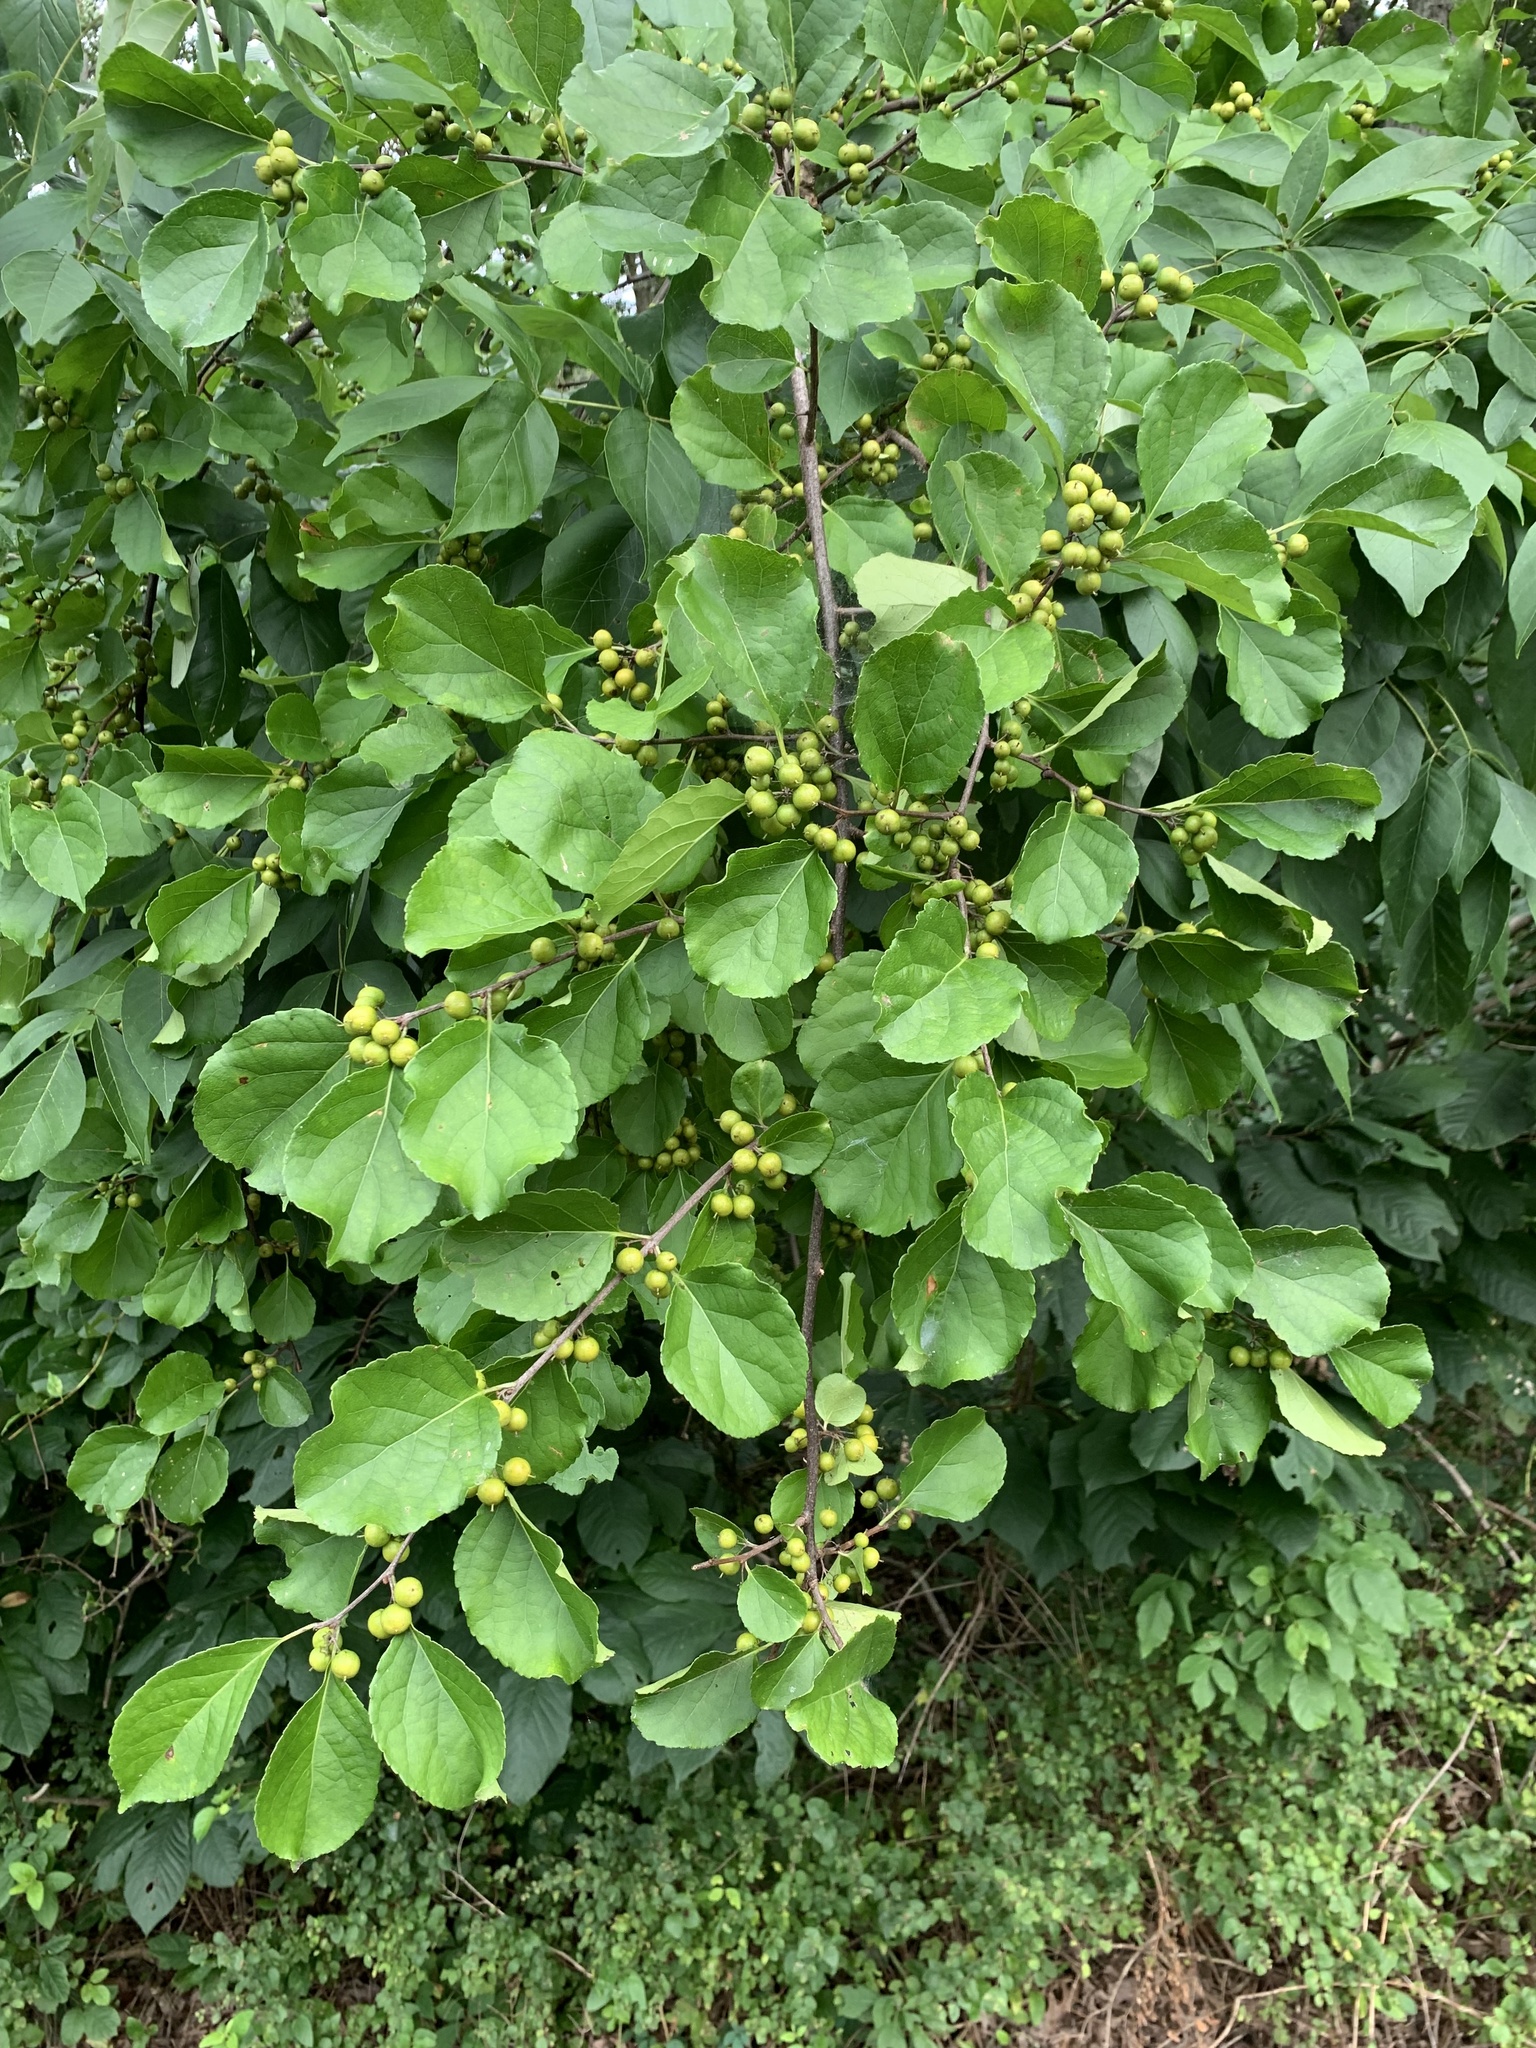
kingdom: Plantae
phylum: Tracheophyta
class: Magnoliopsida
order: Celastrales
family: Celastraceae
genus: Celastrus
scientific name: Celastrus orbiculatus
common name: Oriental bittersweet
